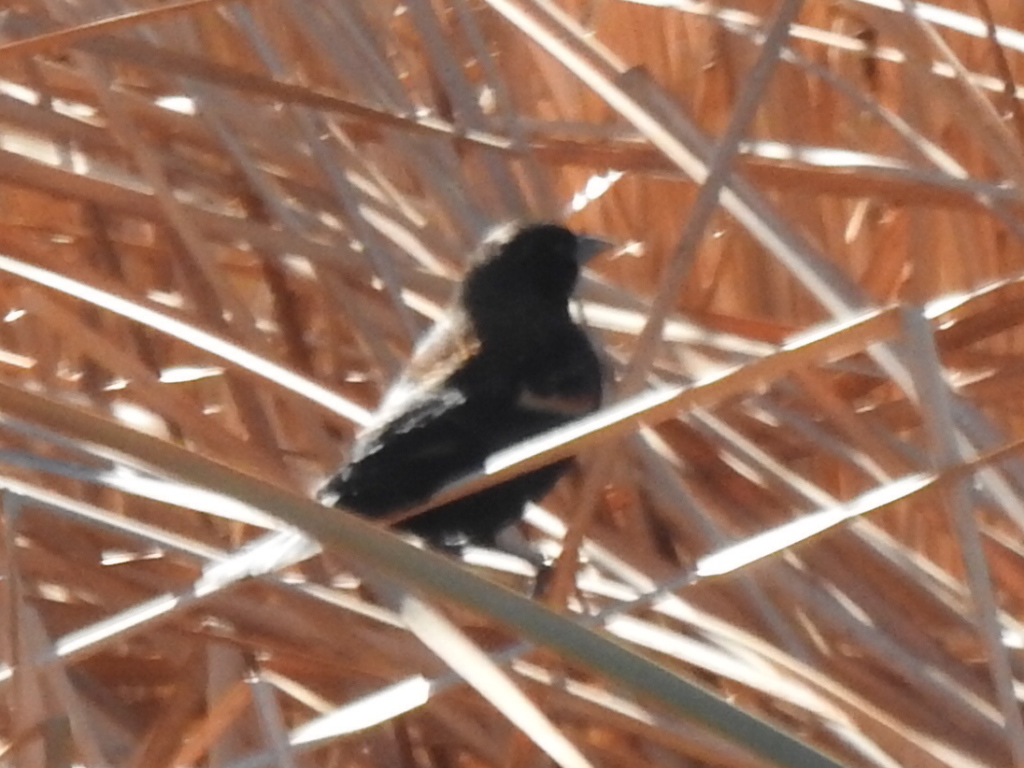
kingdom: Animalia
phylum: Chordata
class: Aves
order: Passeriformes
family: Icteridae
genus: Agelaius
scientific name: Agelaius phoeniceus
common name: Red-winged blackbird
